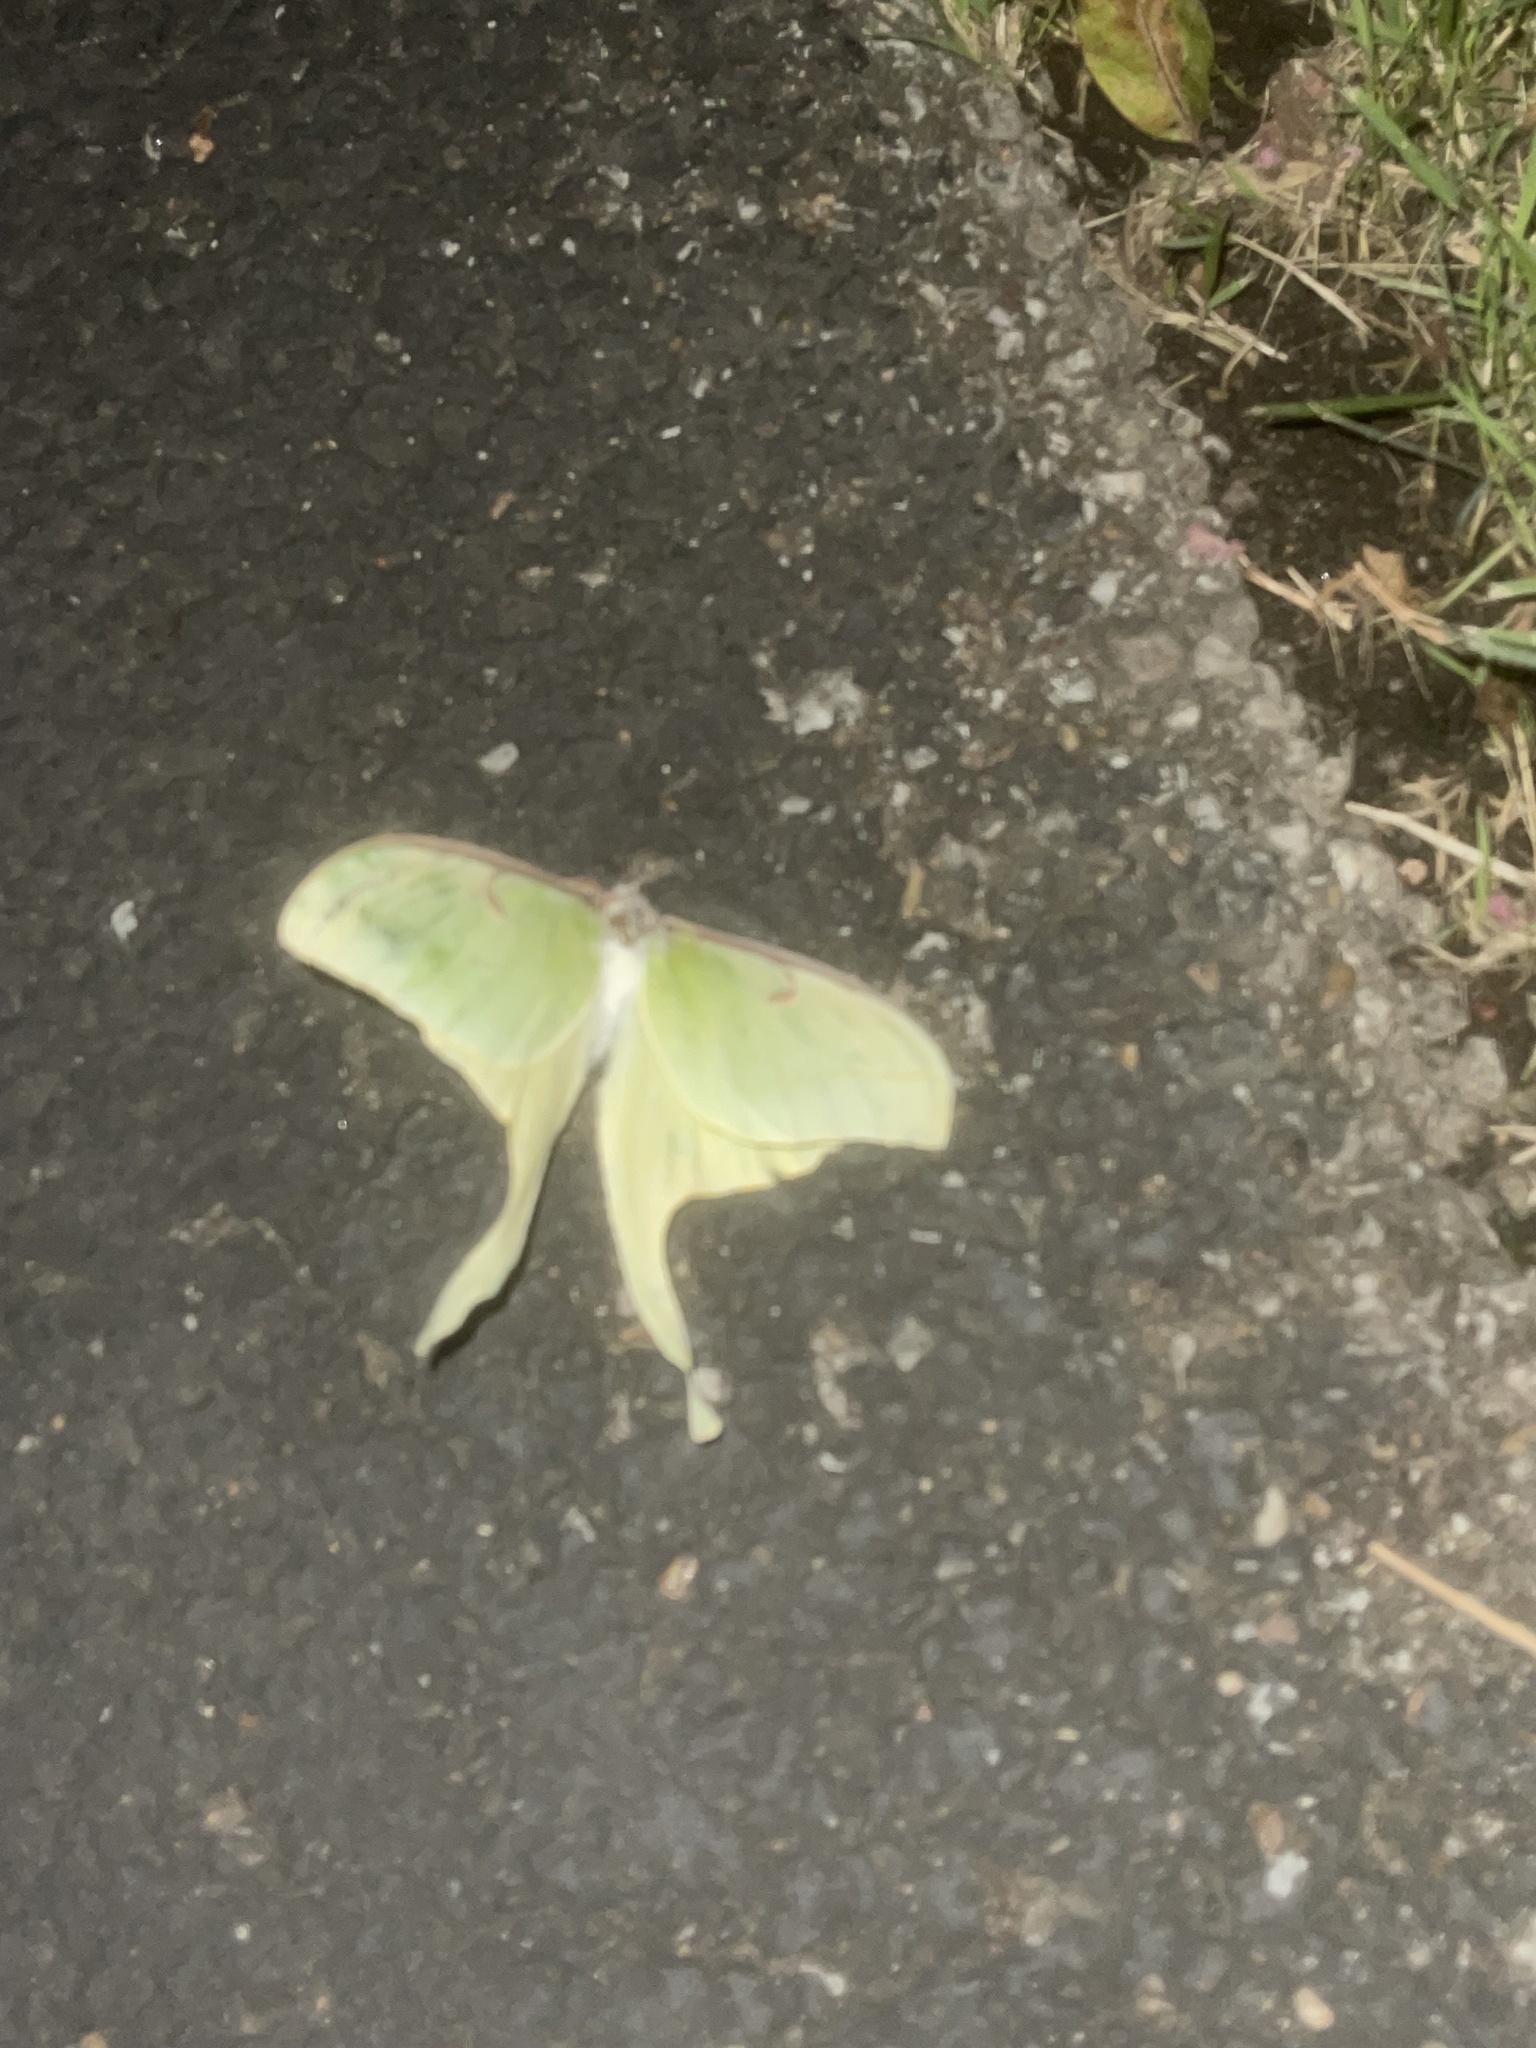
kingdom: Animalia
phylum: Arthropoda
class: Insecta
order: Lepidoptera
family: Saturniidae
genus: Actias
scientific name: Actias luna
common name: Luna moth
